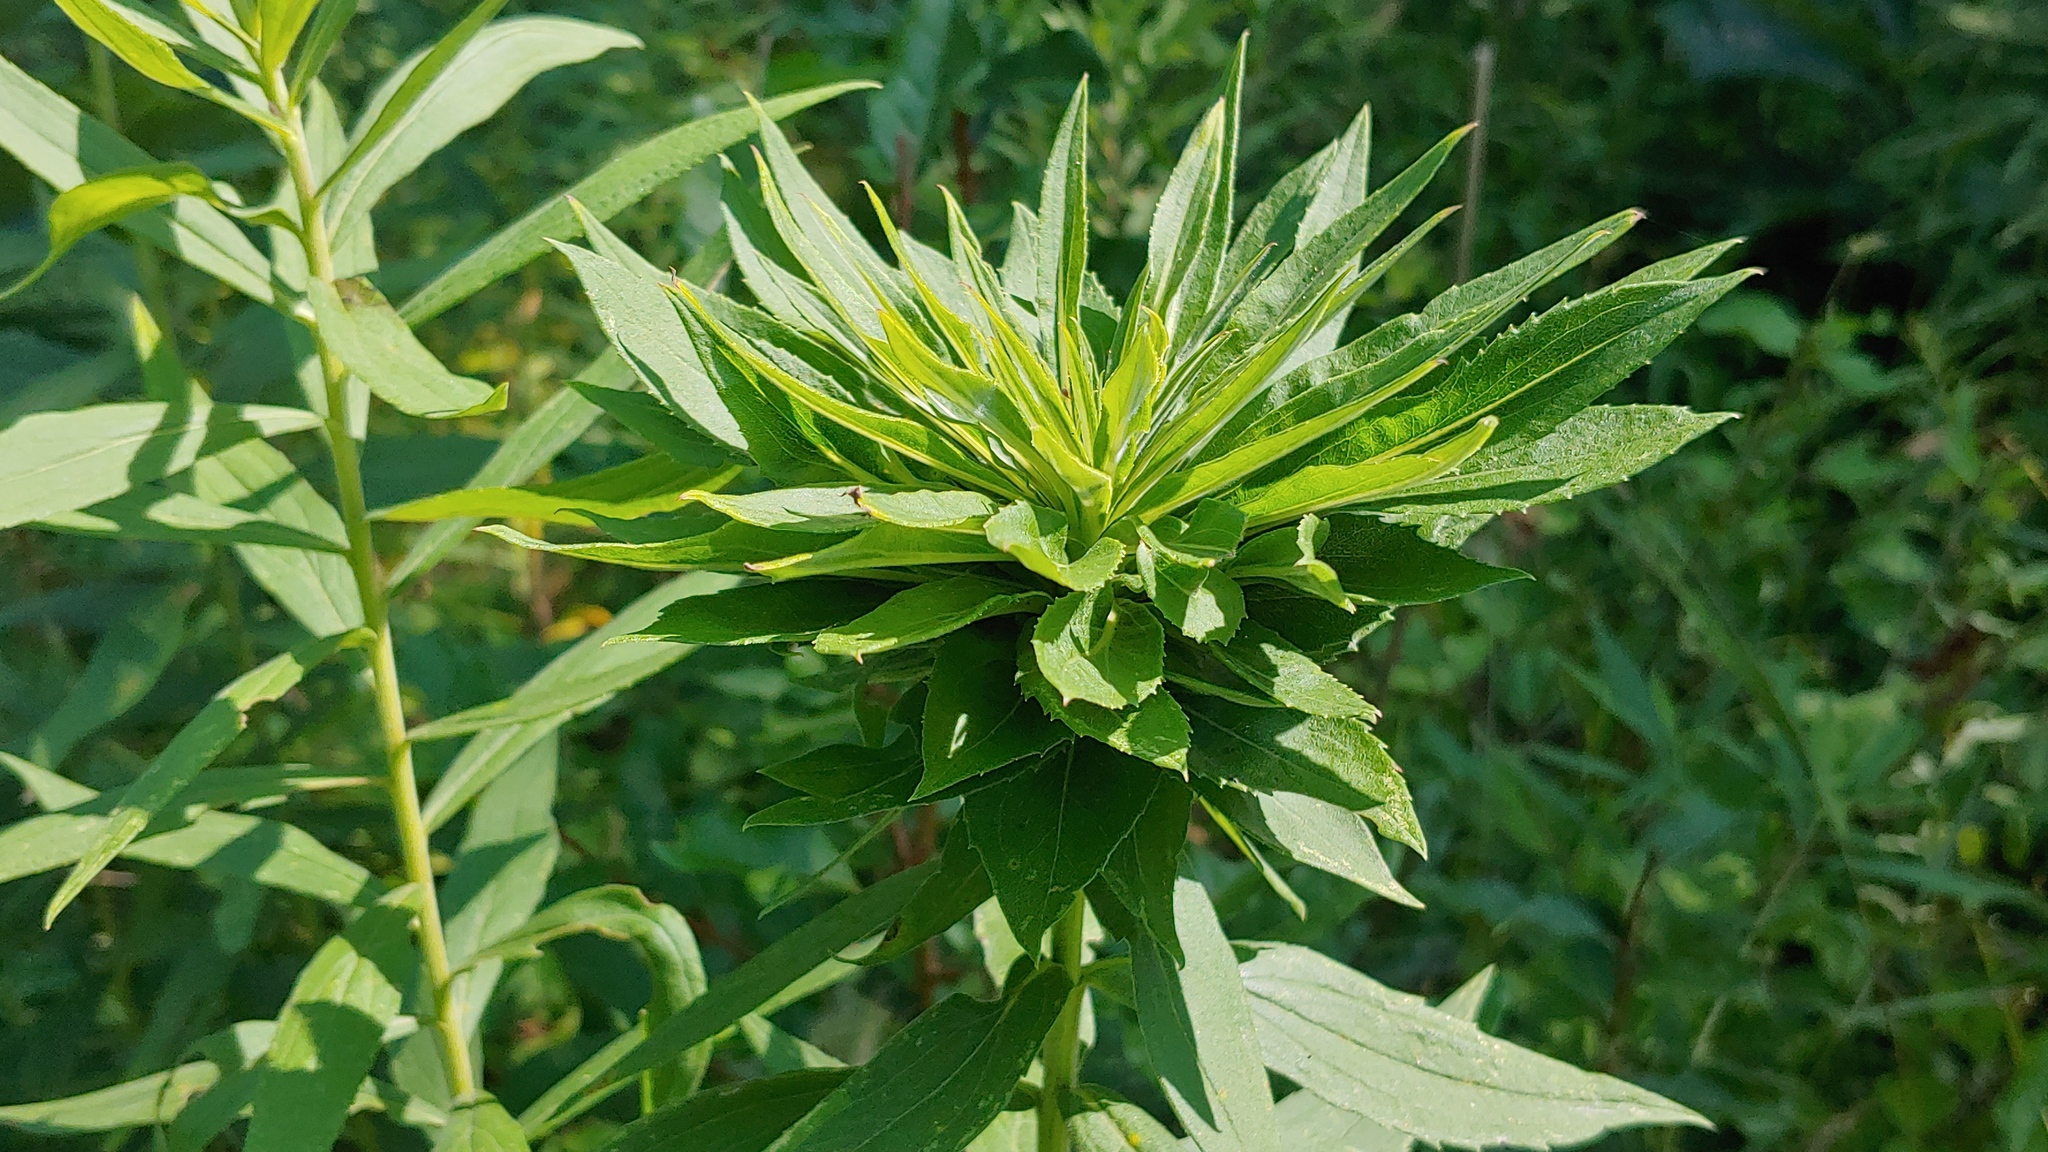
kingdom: Animalia
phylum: Arthropoda
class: Insecta
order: Diptera
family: Cecidomyiidae
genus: Rhopalomyia
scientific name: Rhopalomyia solidaginis
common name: Goldenrod bunch gall midge
